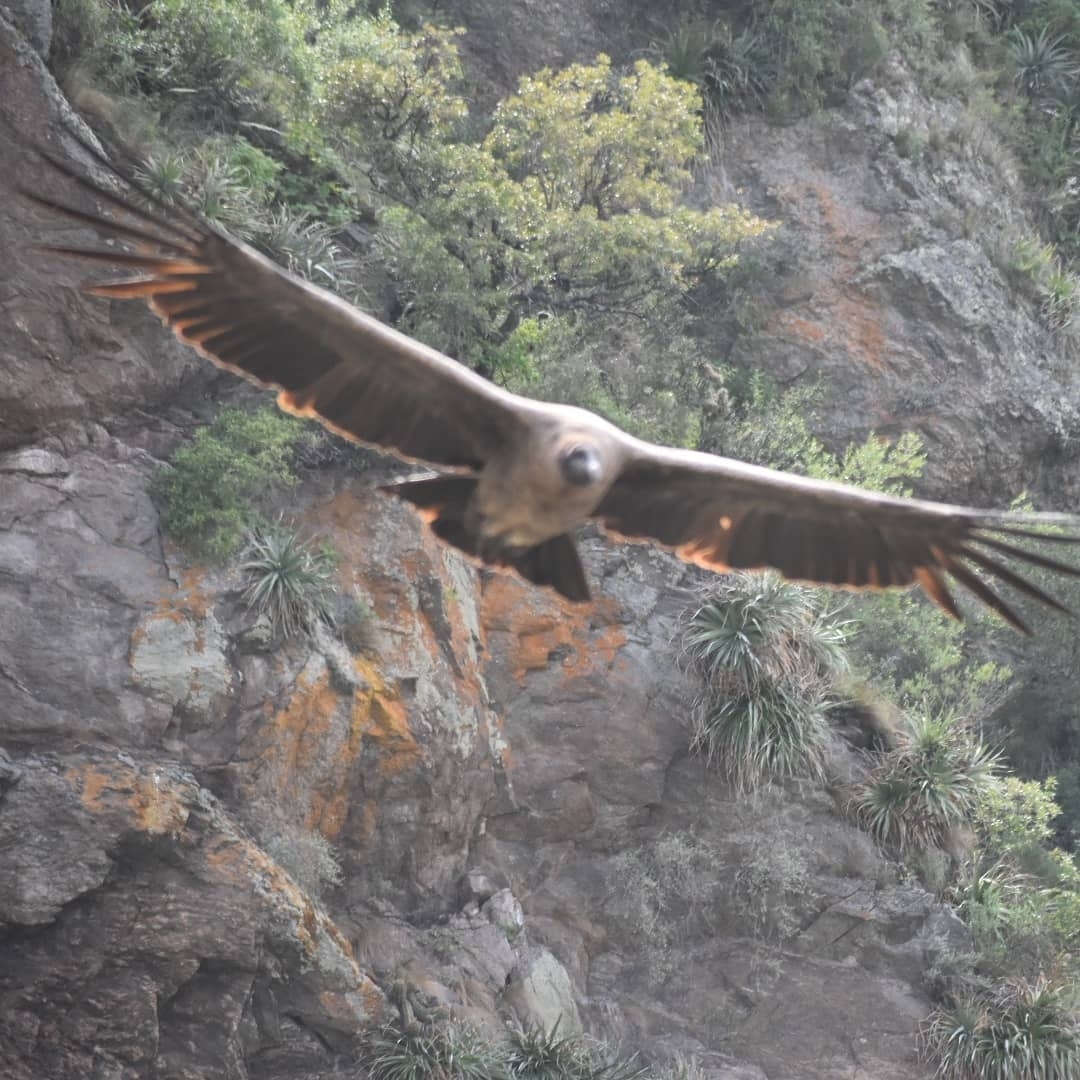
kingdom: Animalia
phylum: Chordata
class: Aves
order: Accipitriformes
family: Cathartidae
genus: Vultur
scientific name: Vultur gryphus
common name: Andean condor
